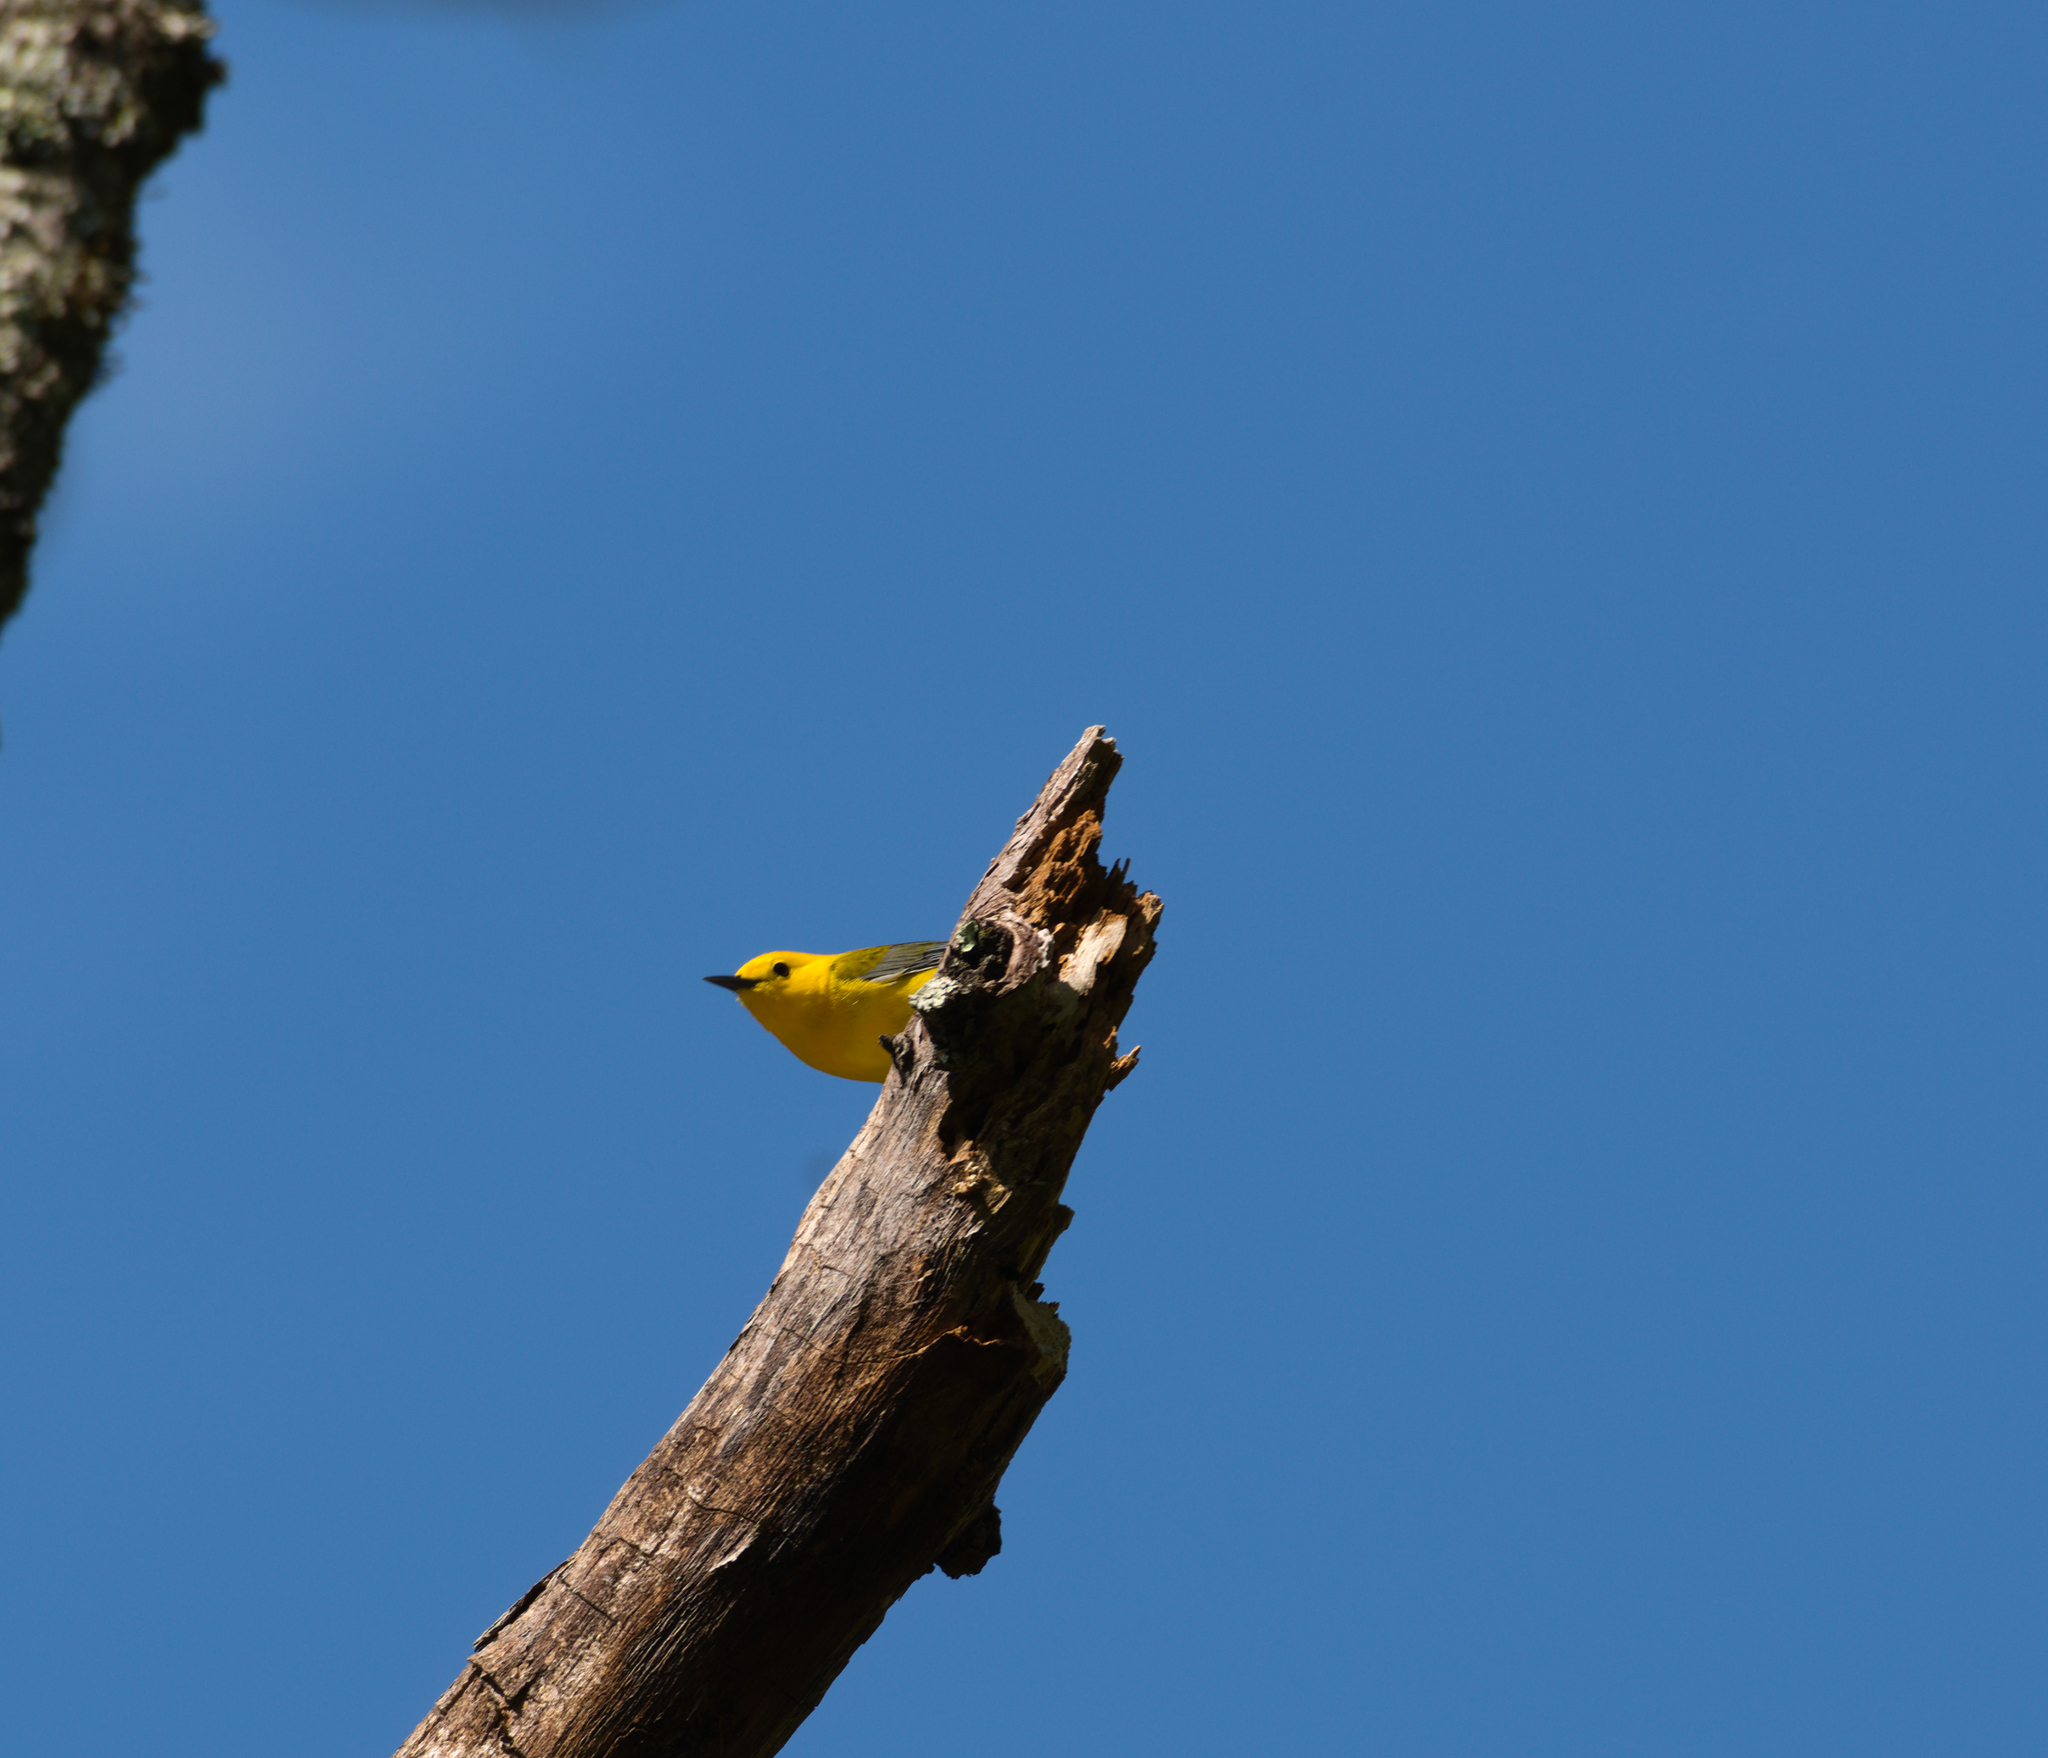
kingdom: Animalia
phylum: Chordata
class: Aves
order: Passeriformes
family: Parulidae
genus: Protonotaria
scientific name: Protonotaria citrea
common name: Prothonotary warbler
